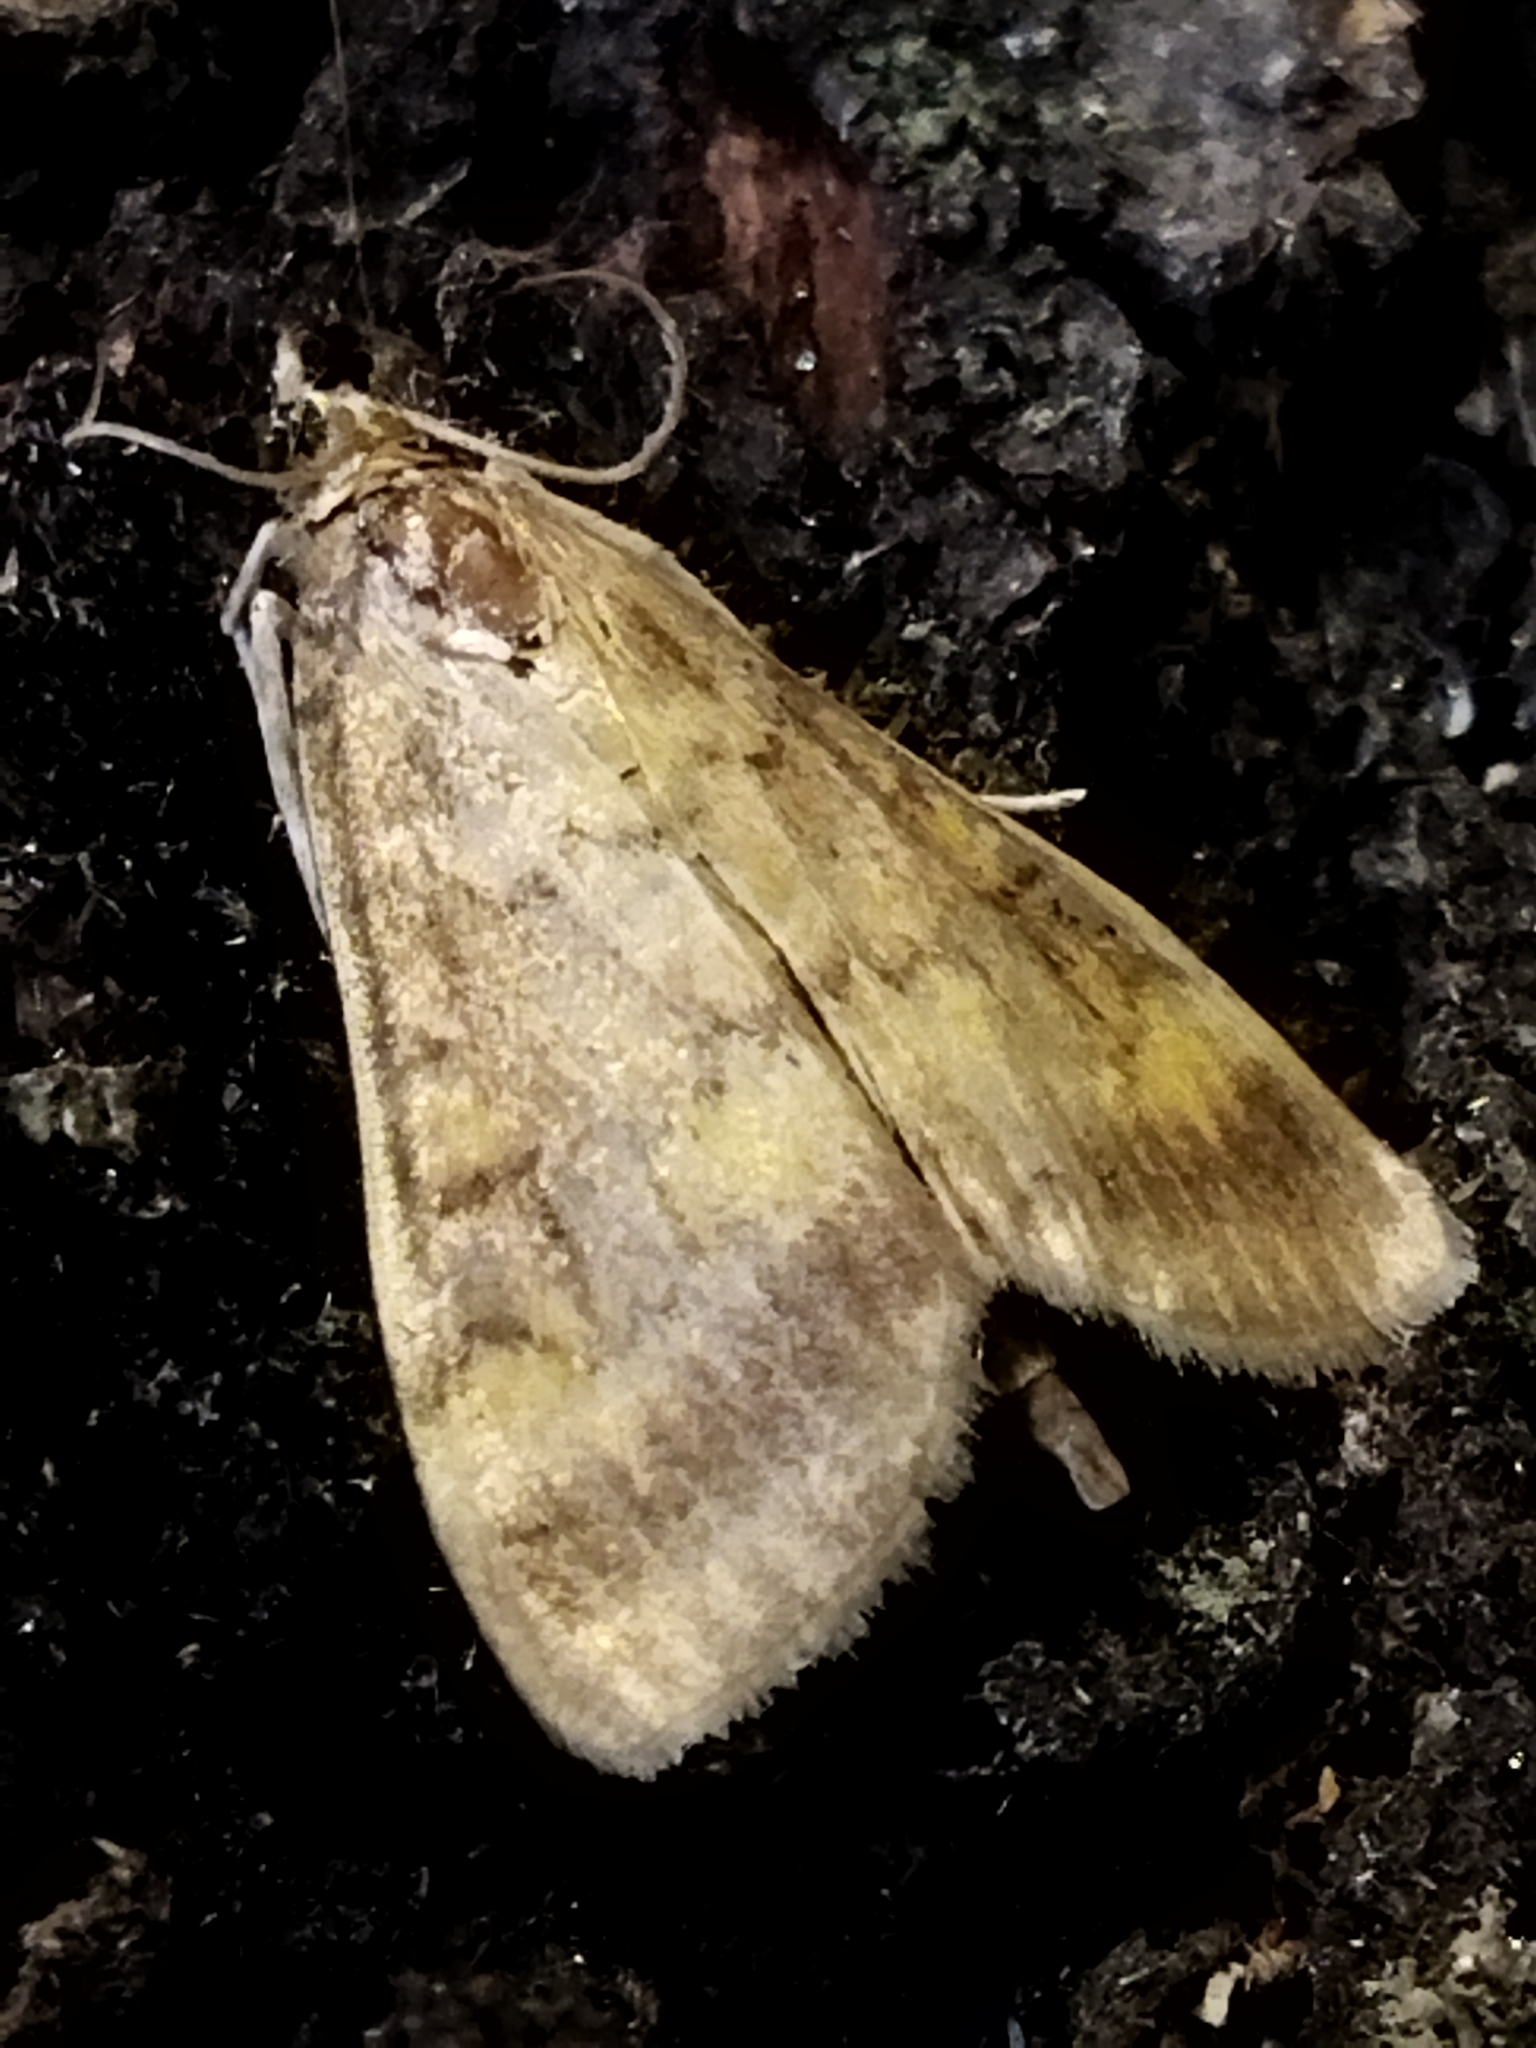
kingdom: Animalia
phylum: Arthropoda
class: Insecta
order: Lepidoptera
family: Crambidae
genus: Ostrinia
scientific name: Ostrinia nubilalis
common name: European corn borer
